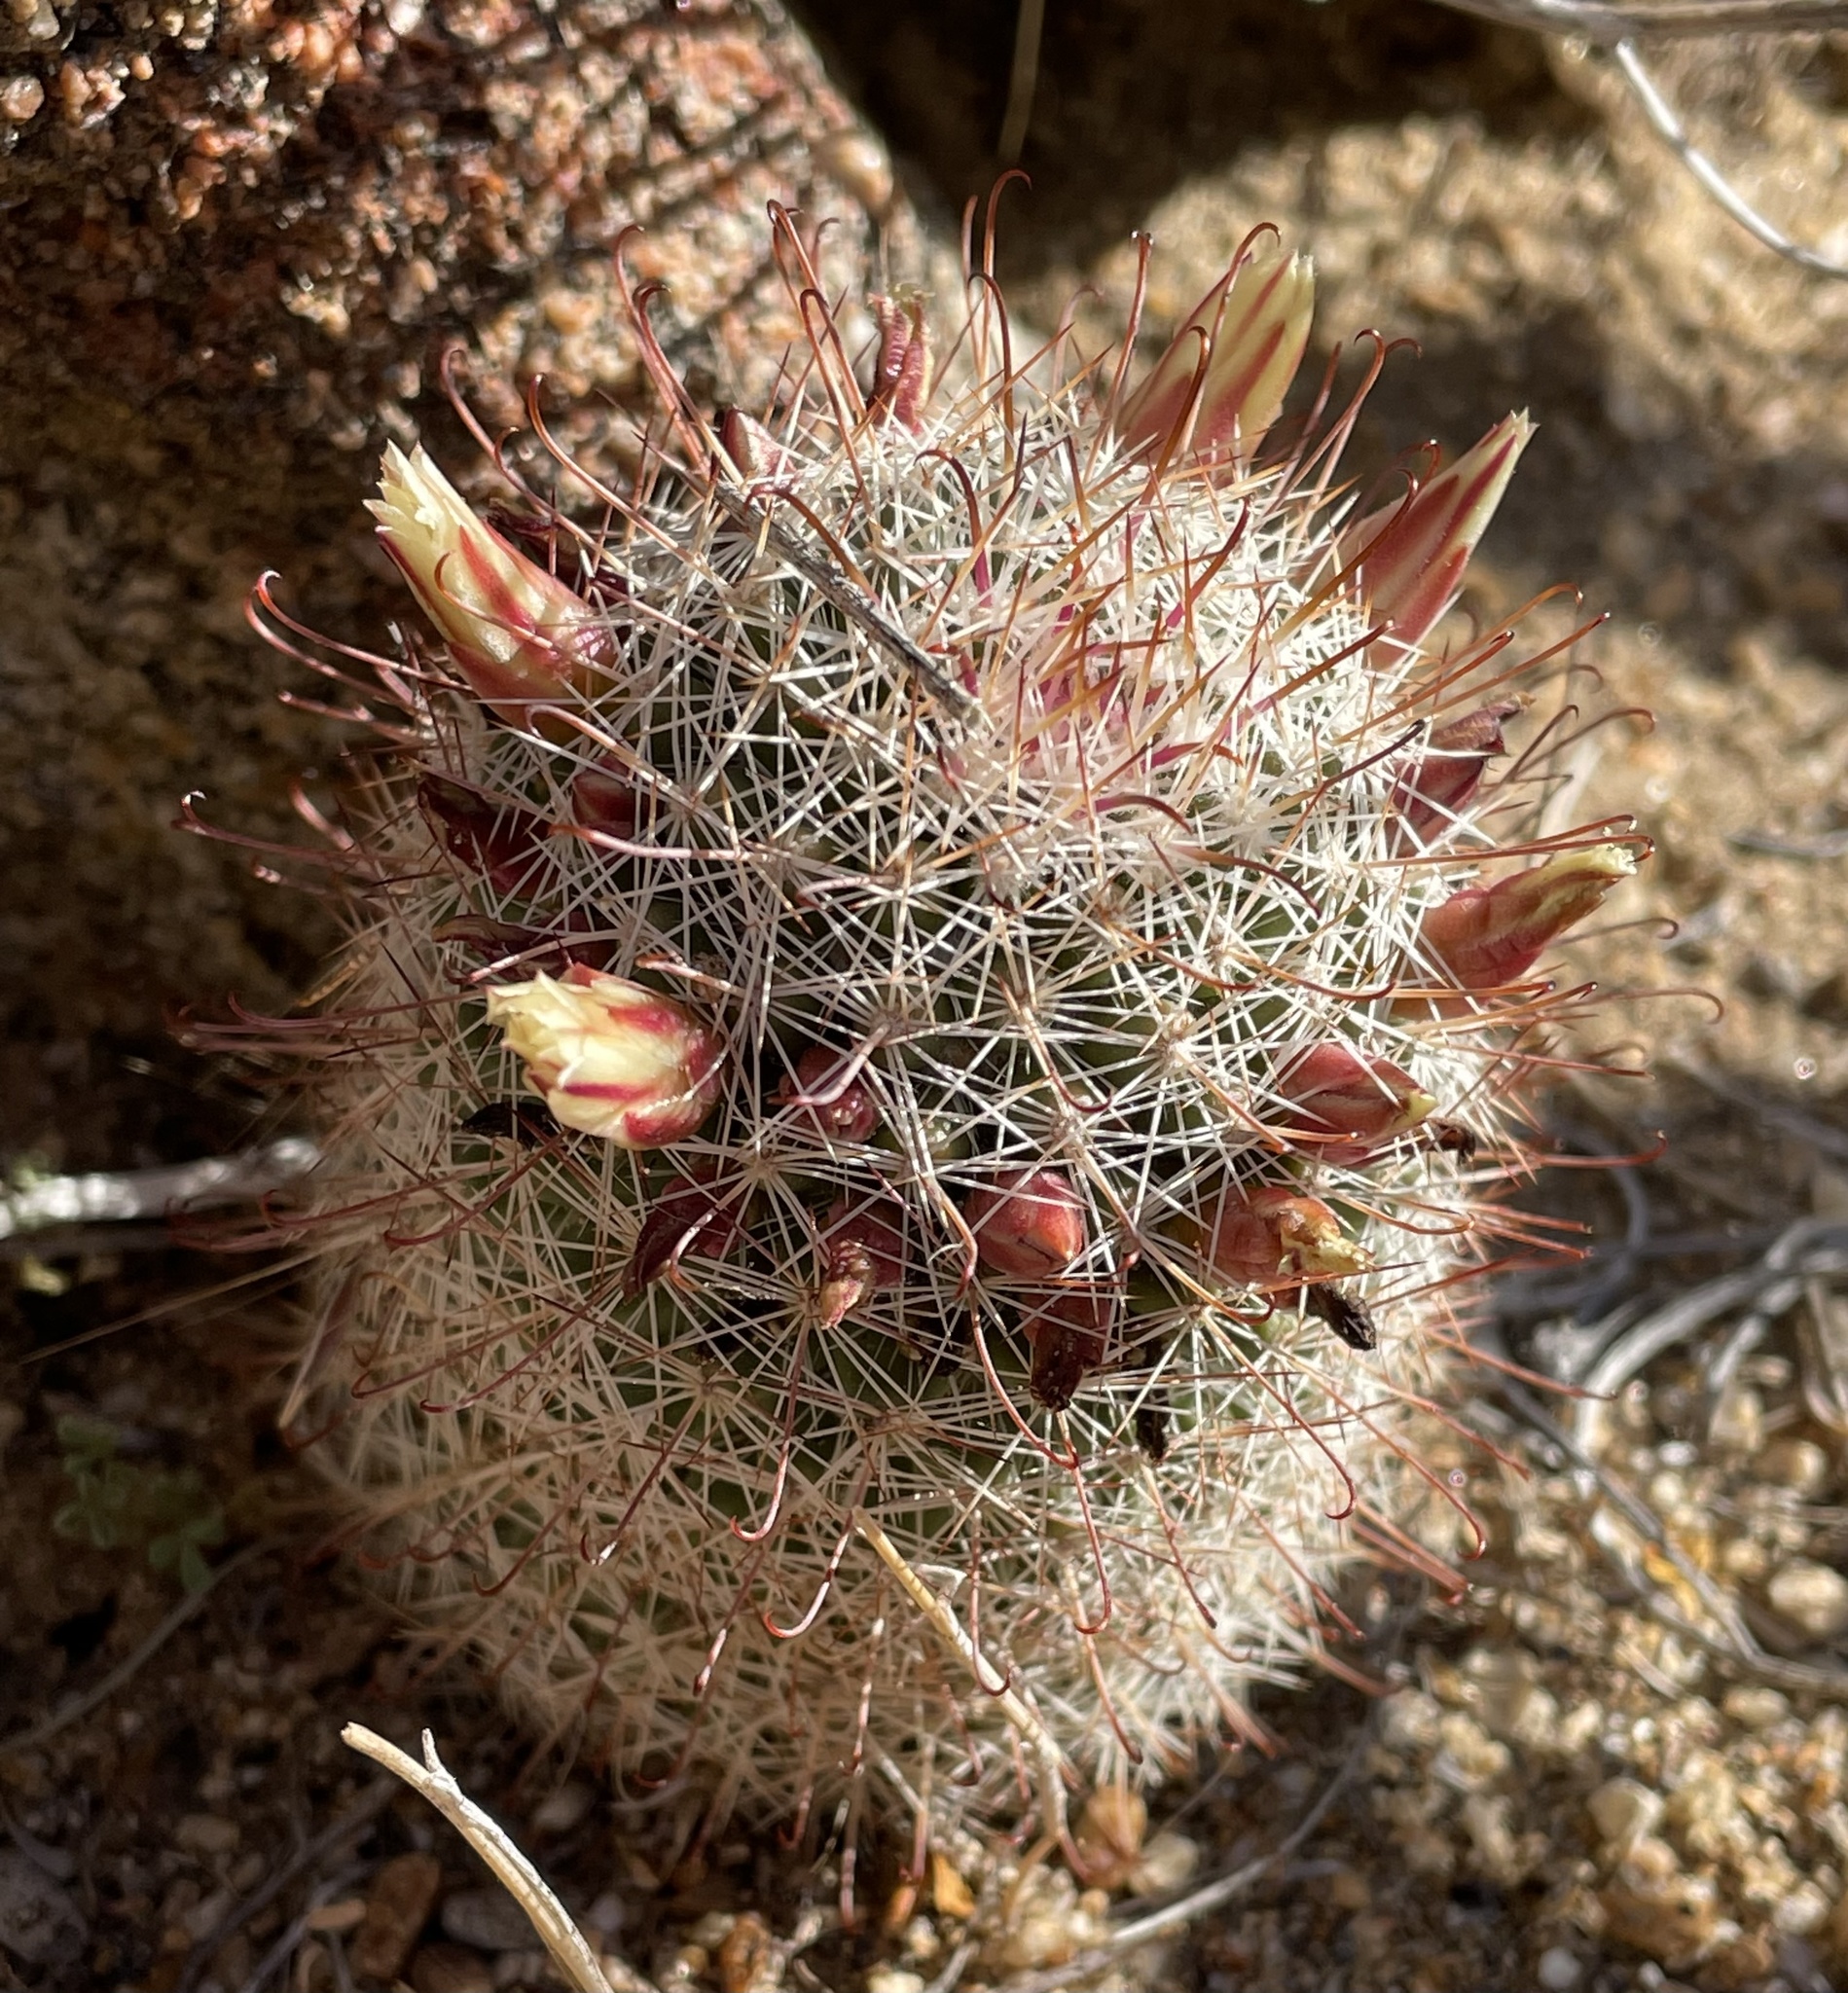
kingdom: Plantae
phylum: Tracheophyta
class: Magnoliopsida
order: Caryophyllales
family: Cactaceae
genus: Cochemiea
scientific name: Cochemiea dioica
